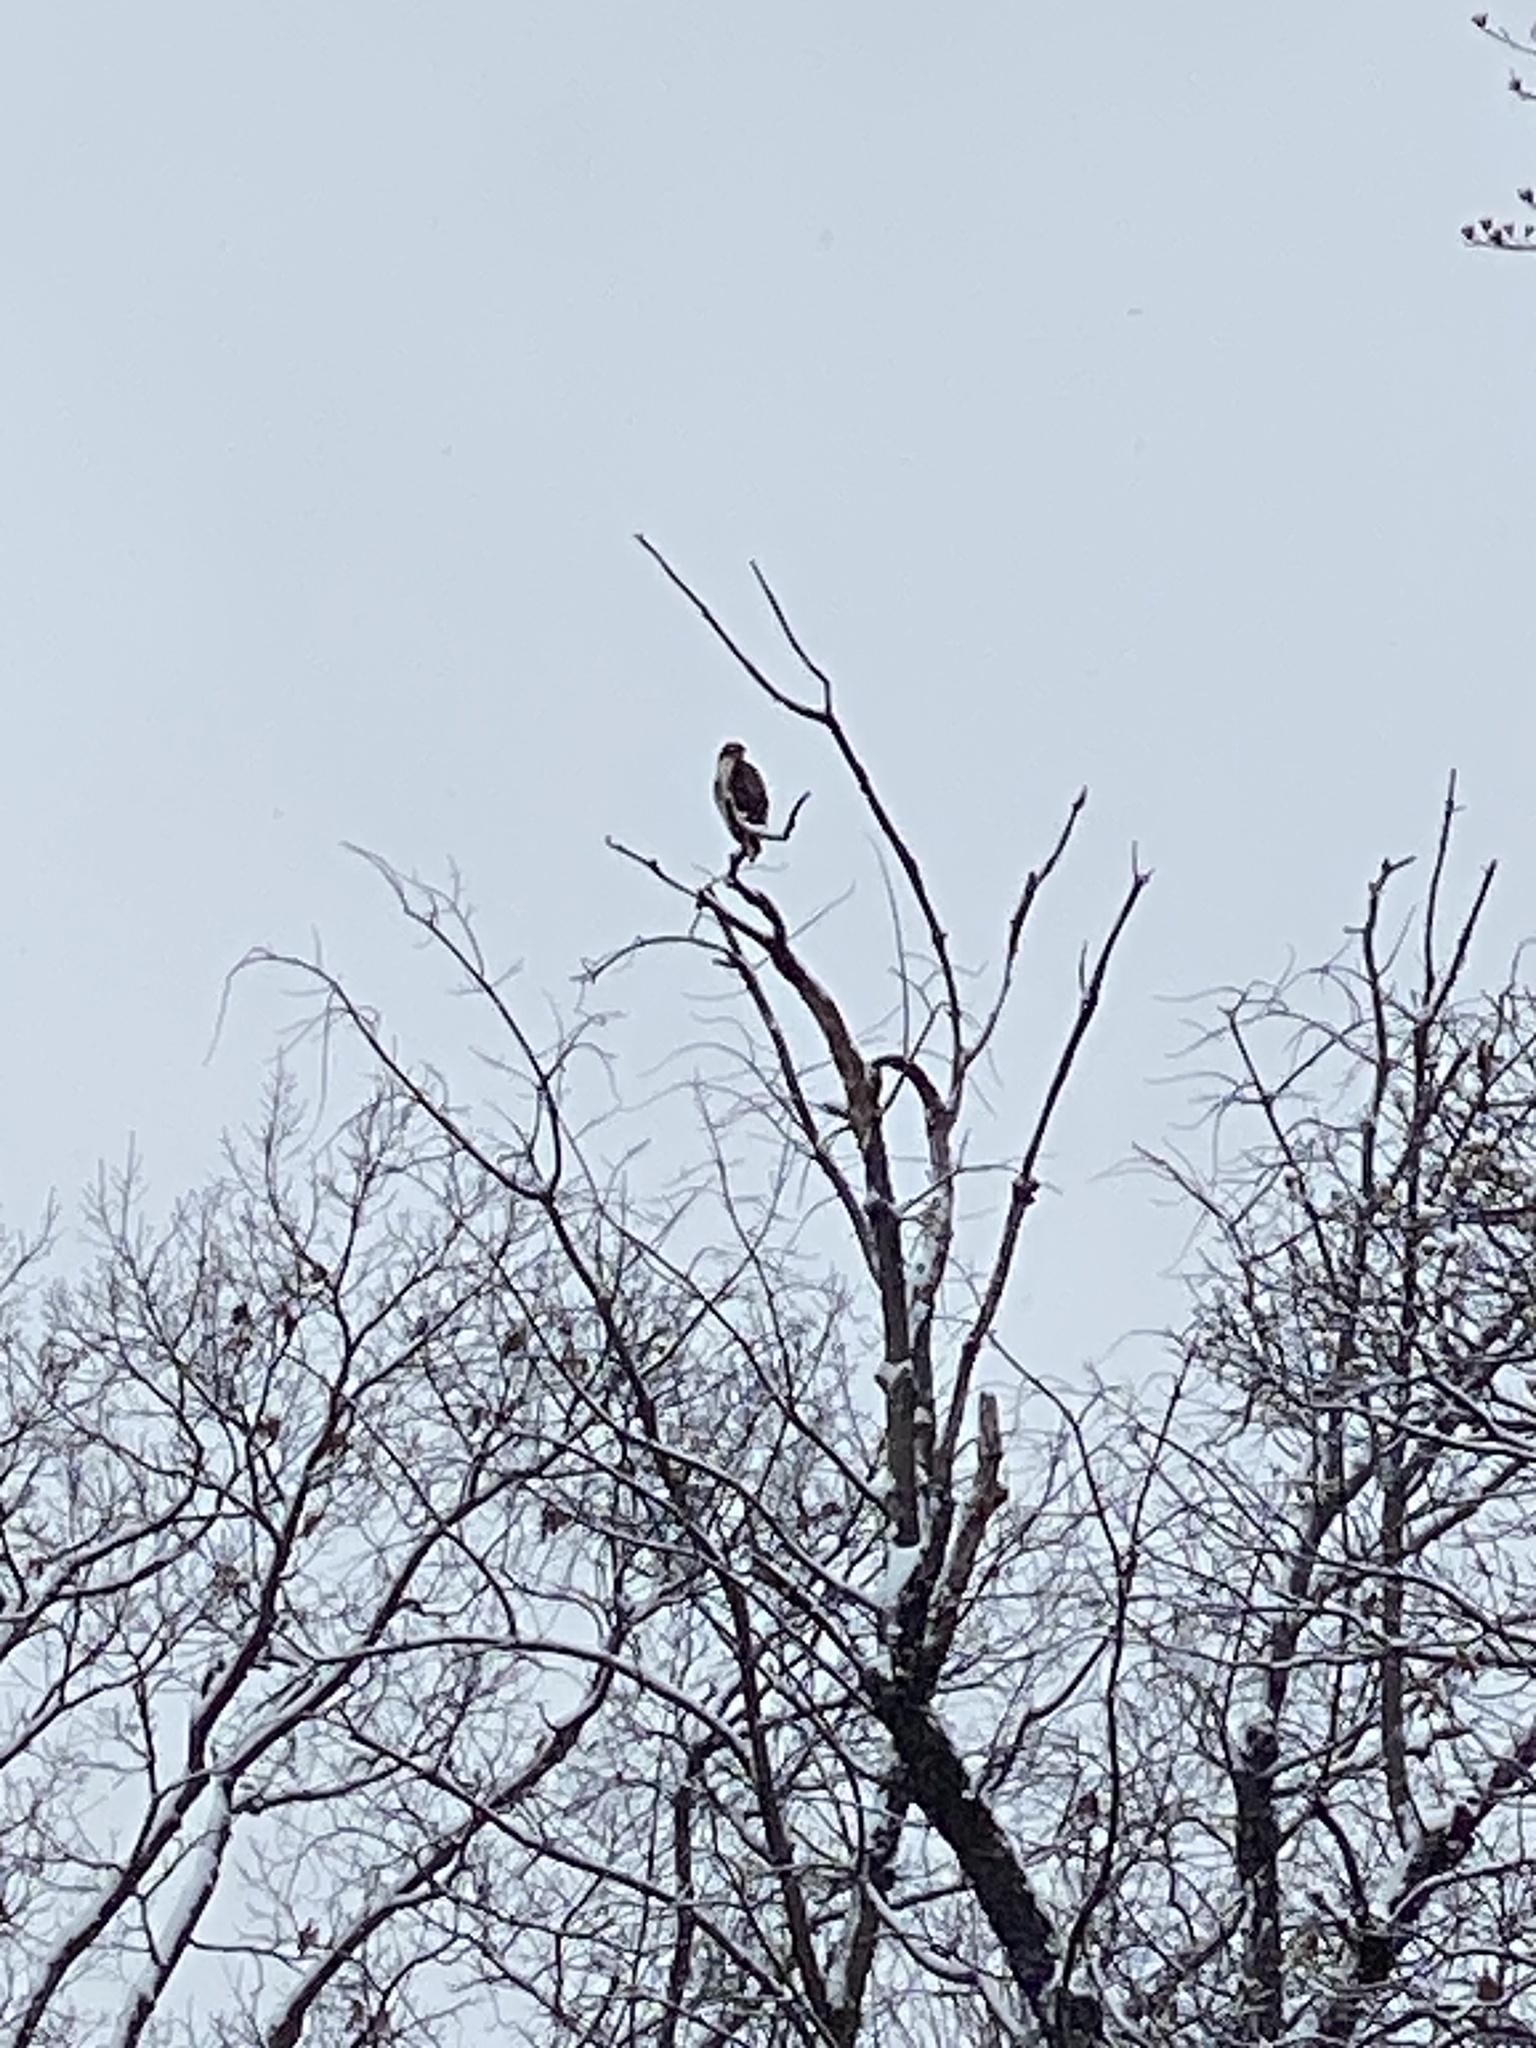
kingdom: Animalia
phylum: Chordata
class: Aves
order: Accipitriformes
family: Accipitridae
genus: Buteo
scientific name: Buteo jamaicensis
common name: Red-tailed hawk
